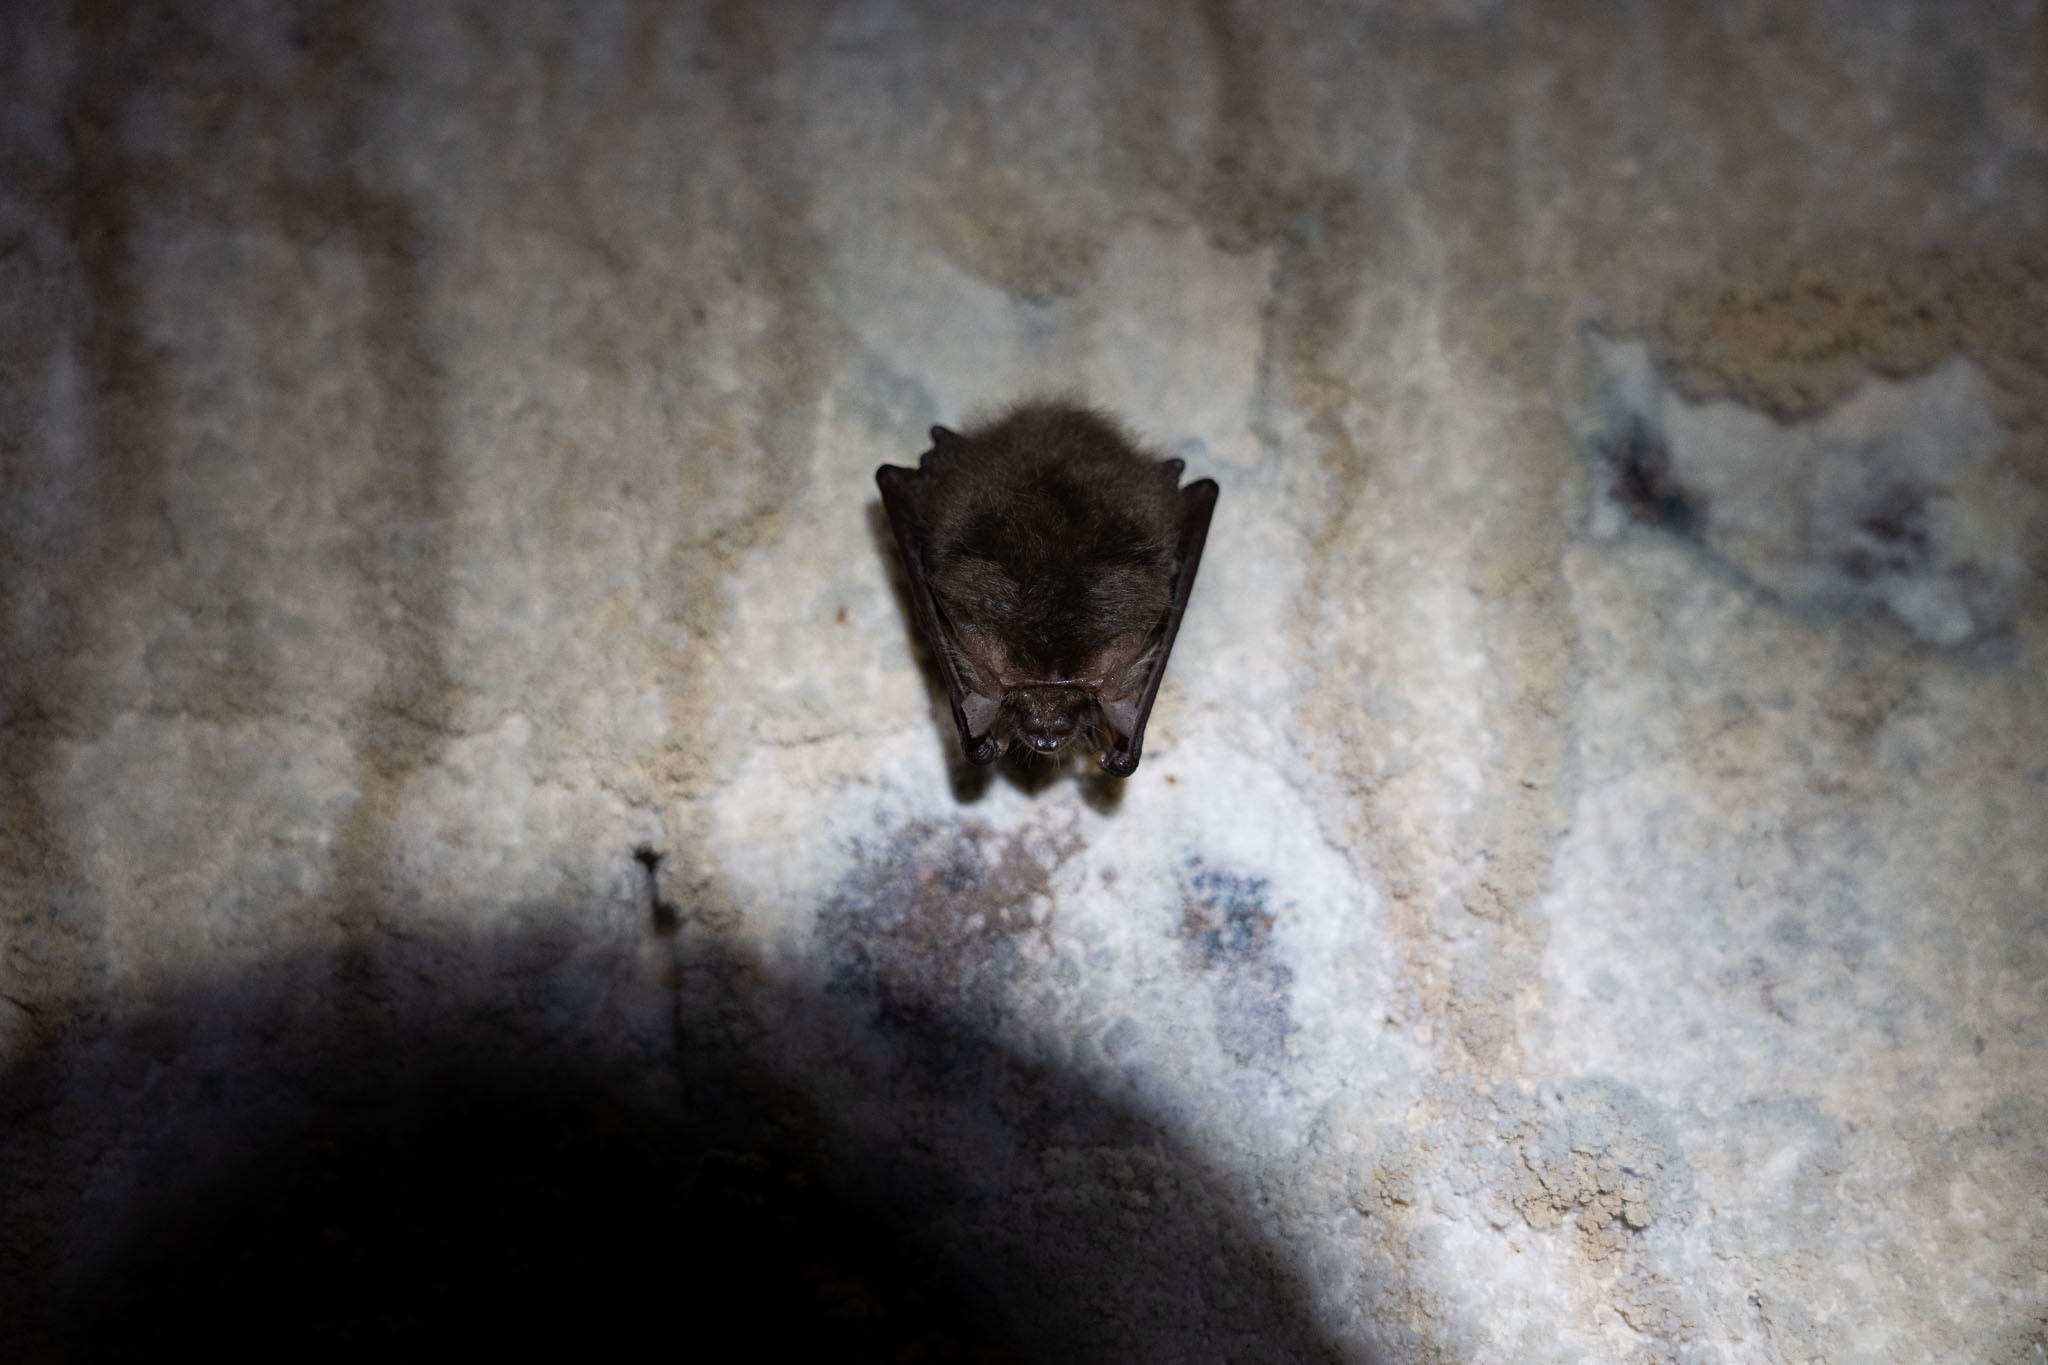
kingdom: Animalia
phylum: Chordata
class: Mammalia
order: Chiroptera
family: Vespertilionidae
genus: Plecotus
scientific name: Plecotus auritus
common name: Brown long-eared bat
